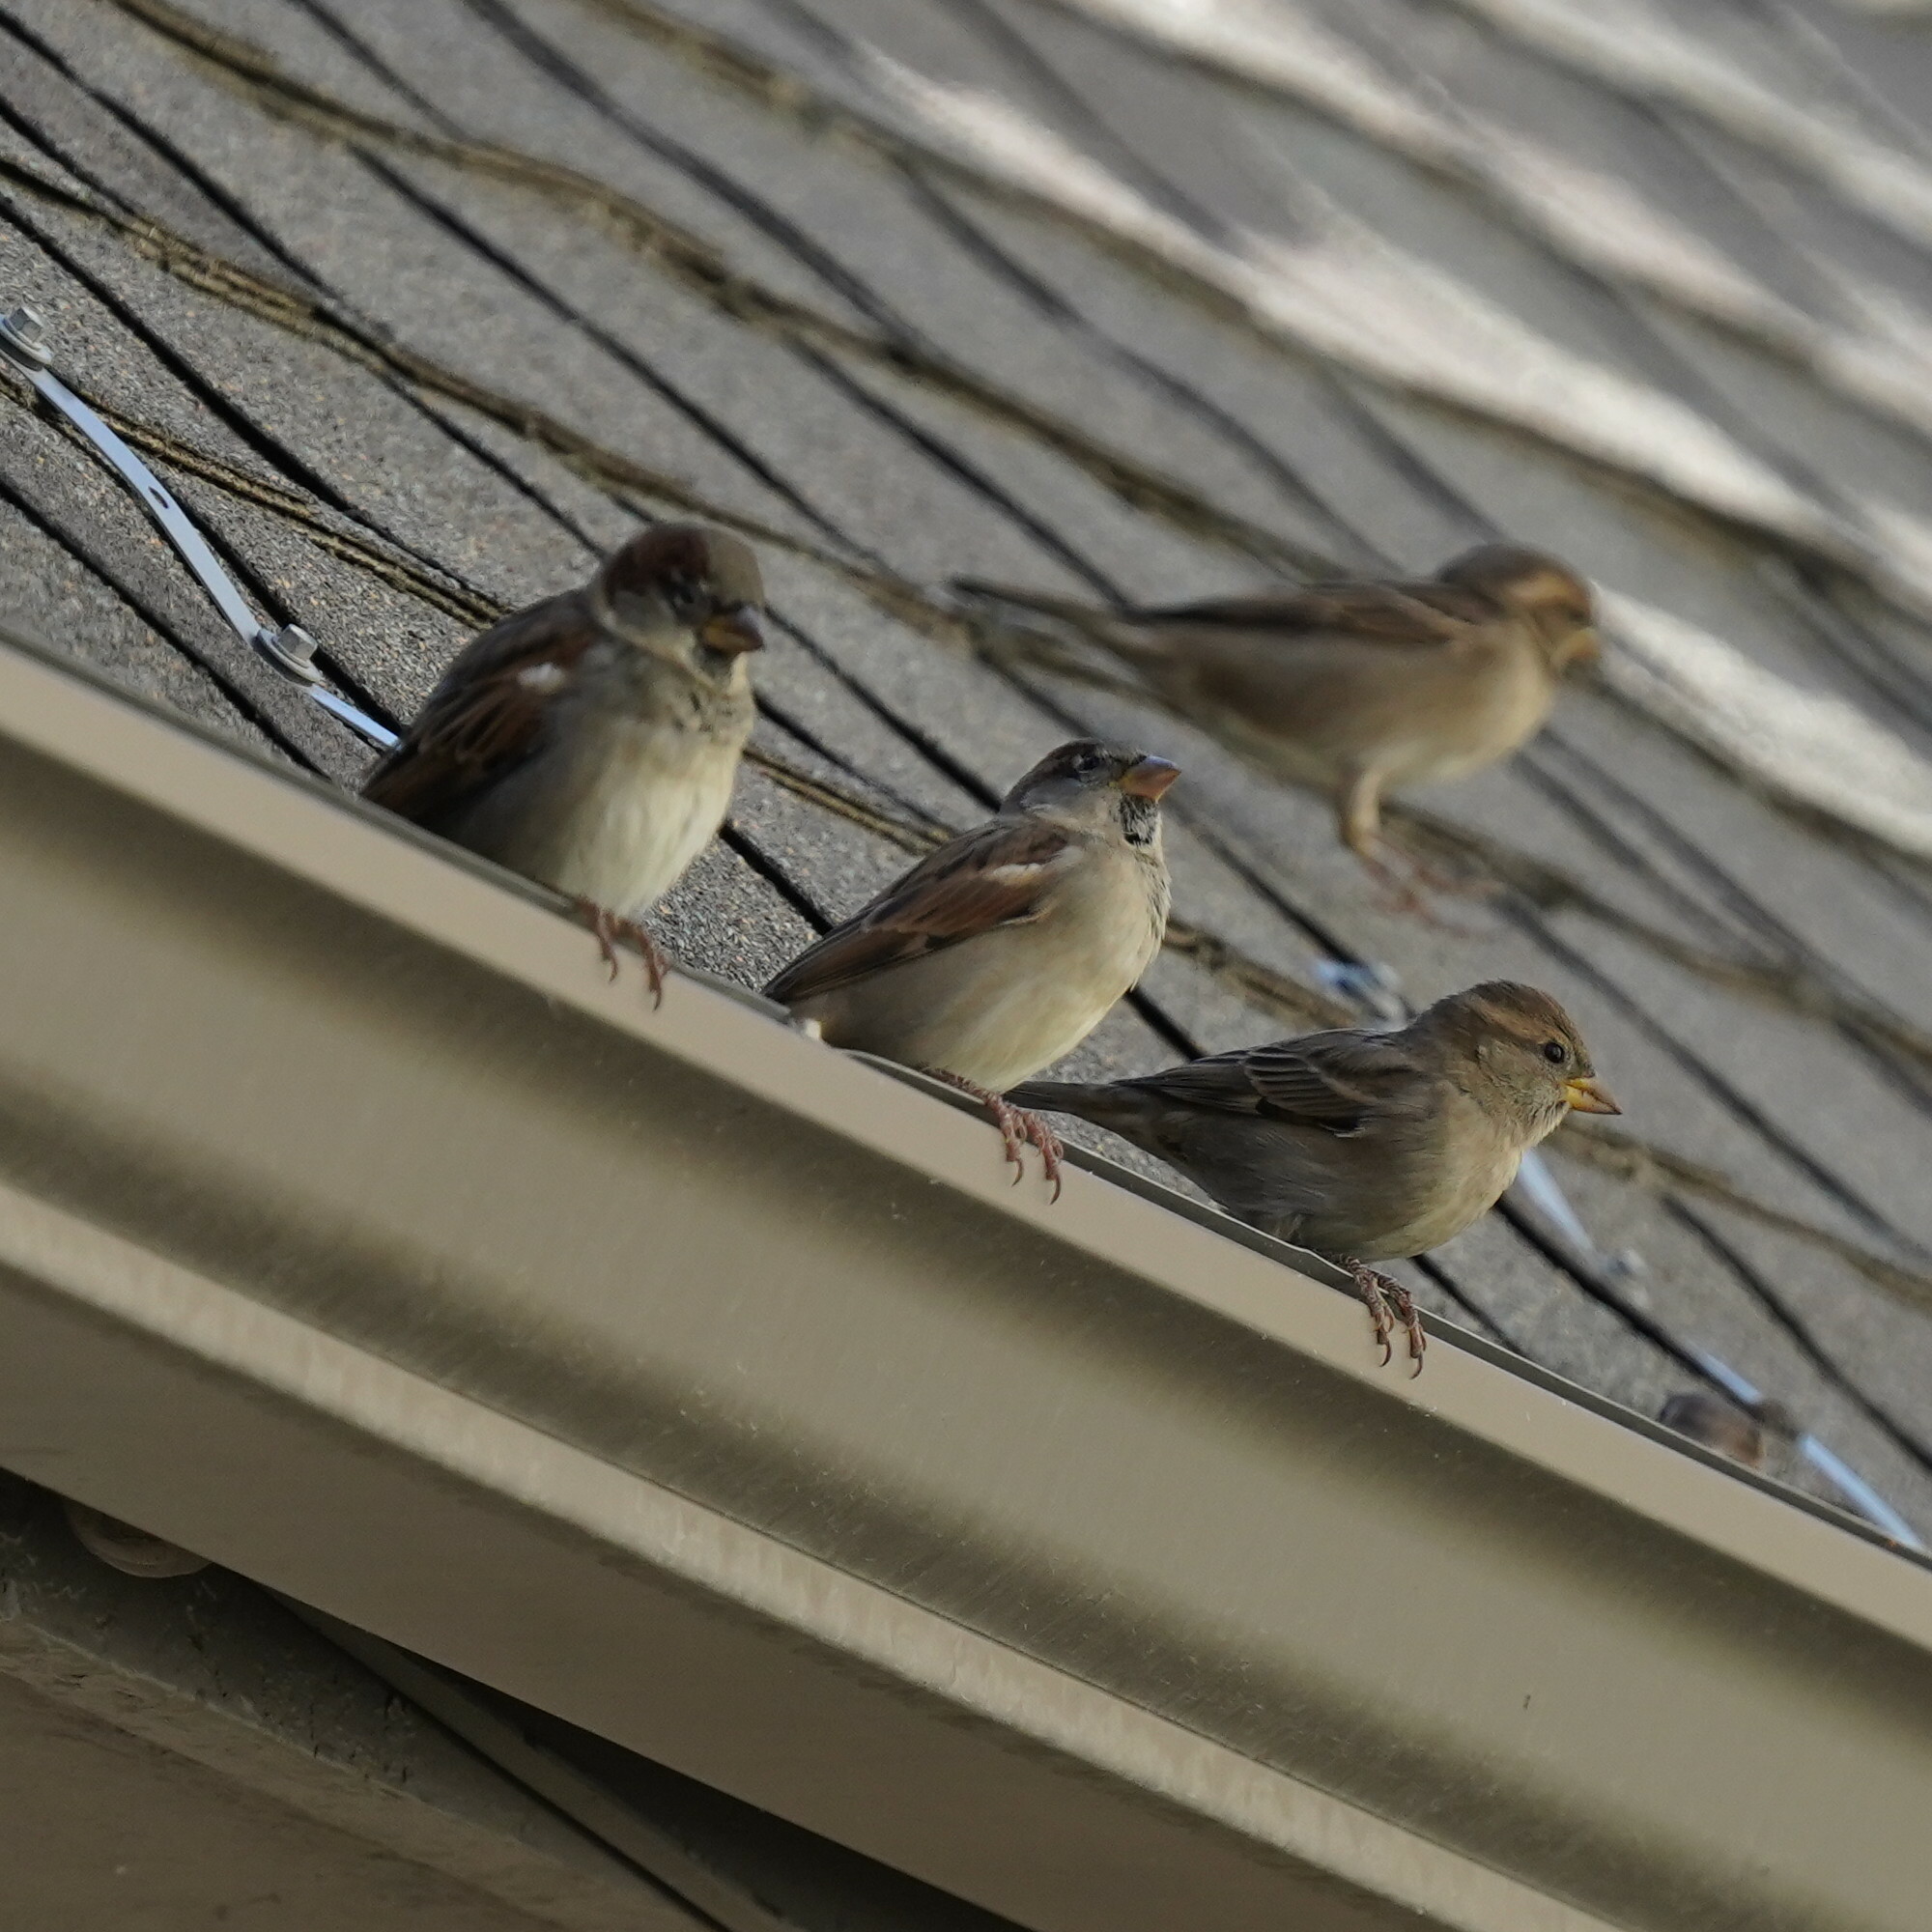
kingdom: Animalia
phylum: Chordata
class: Aves
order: Passeriformes
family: Passeridae
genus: Passer
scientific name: Passer domesticus
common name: House sparrow
